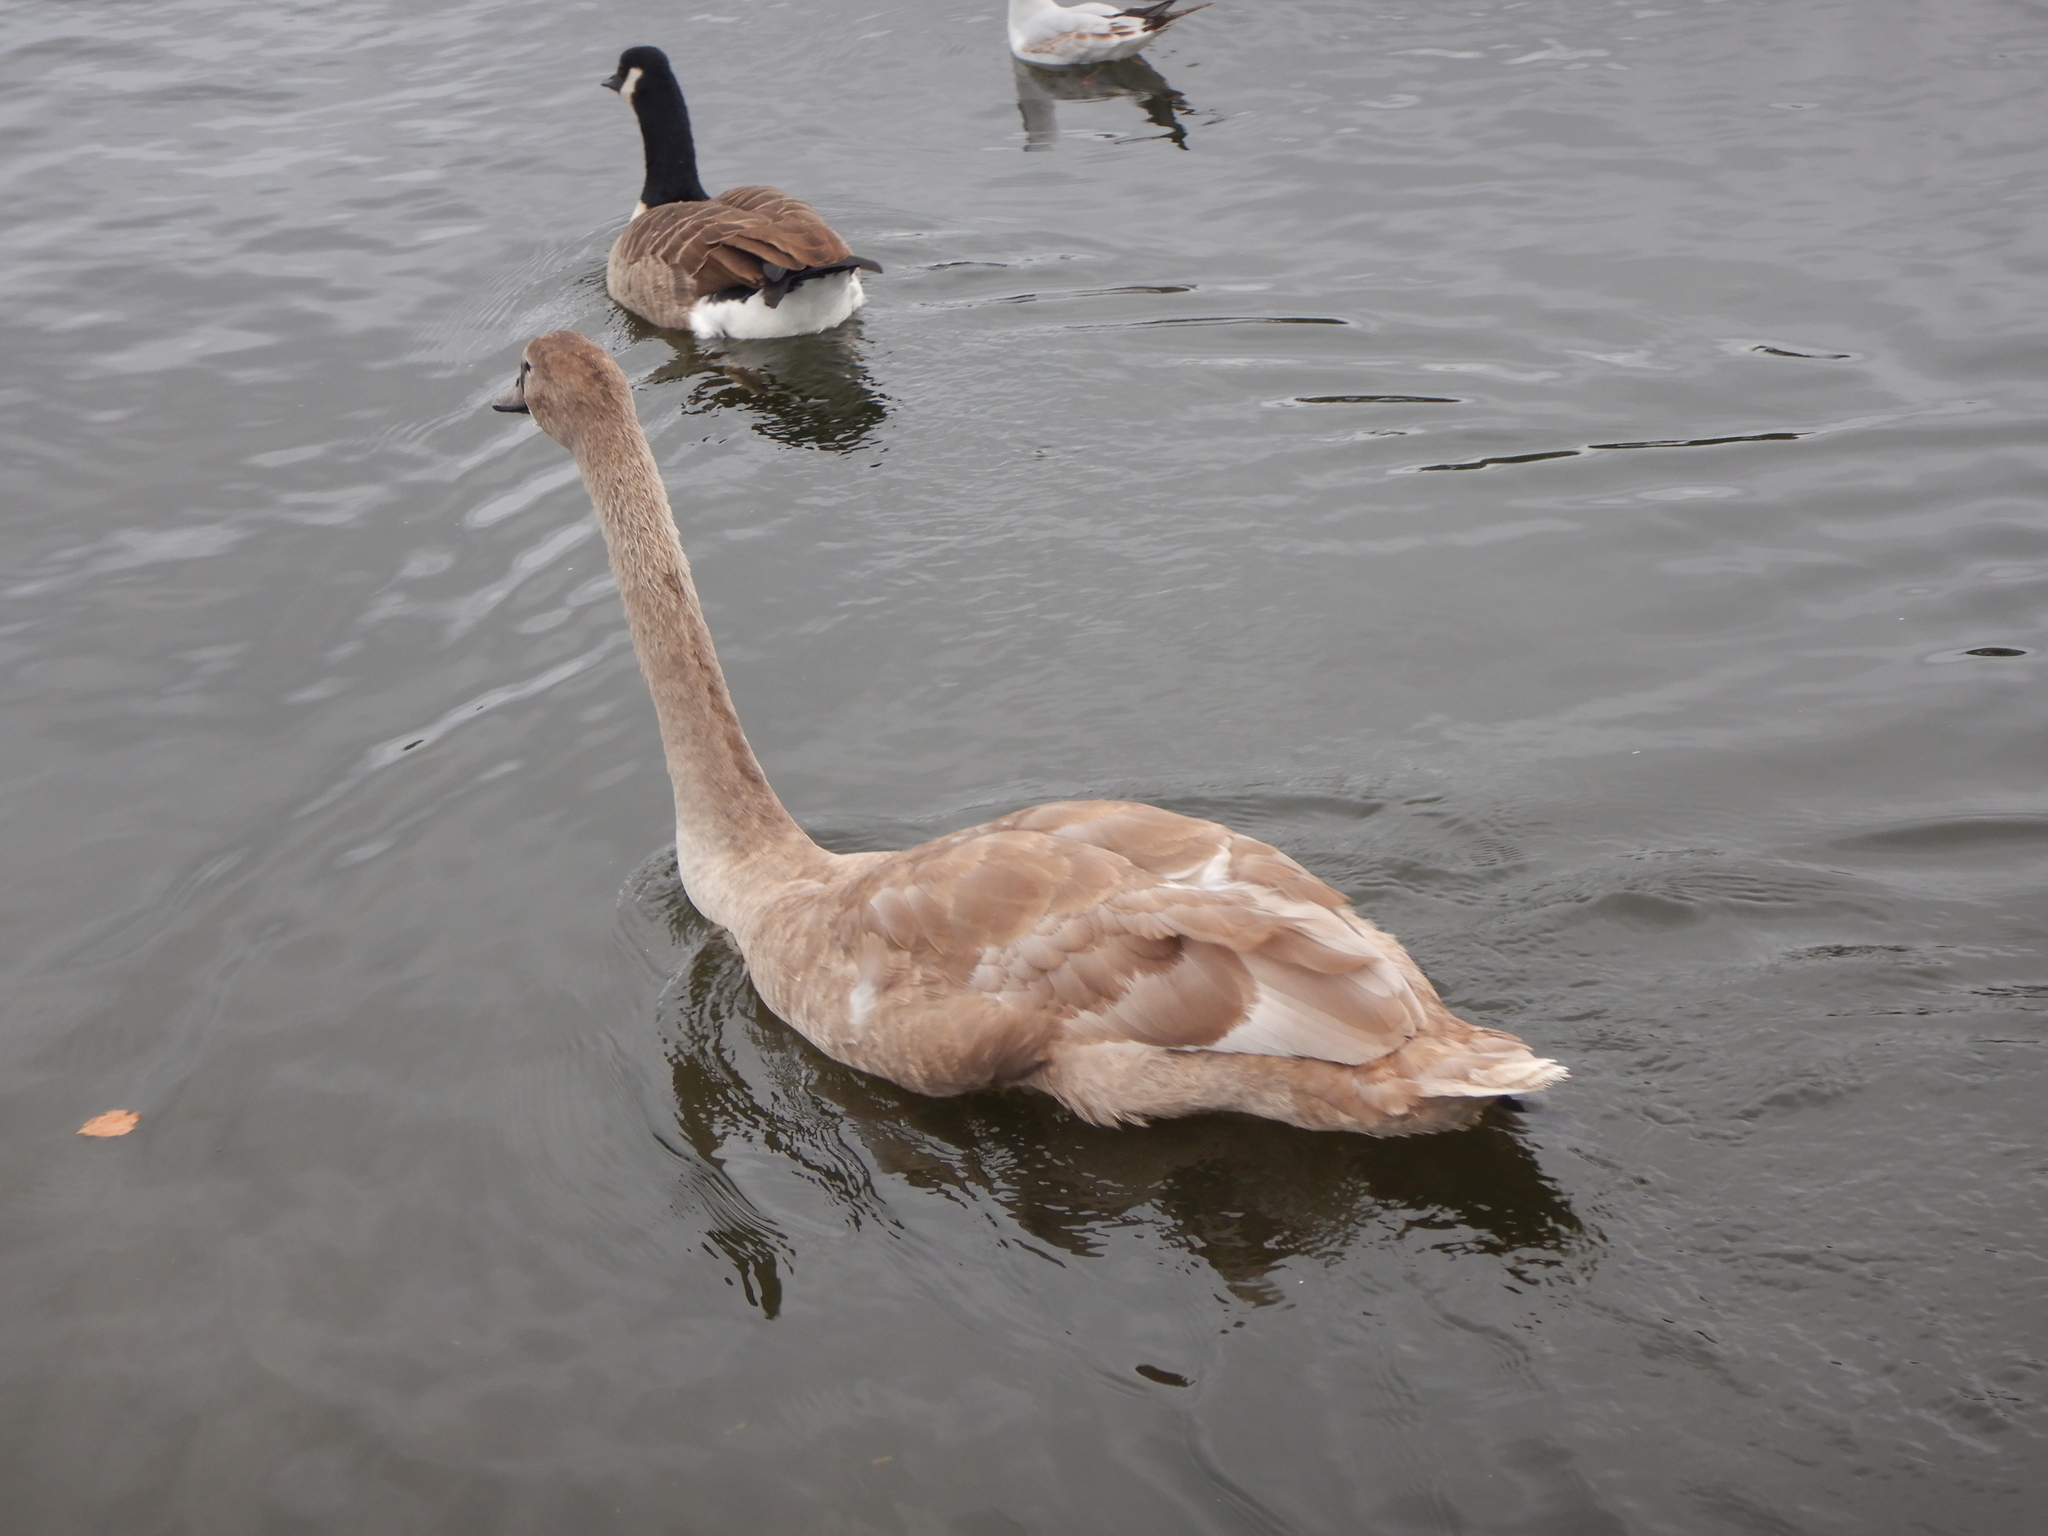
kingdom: Animalia
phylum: Chordata
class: Aves
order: Anseriformes
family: Anatidae
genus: Cygnus
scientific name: Cygnus olor
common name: Mute swan
